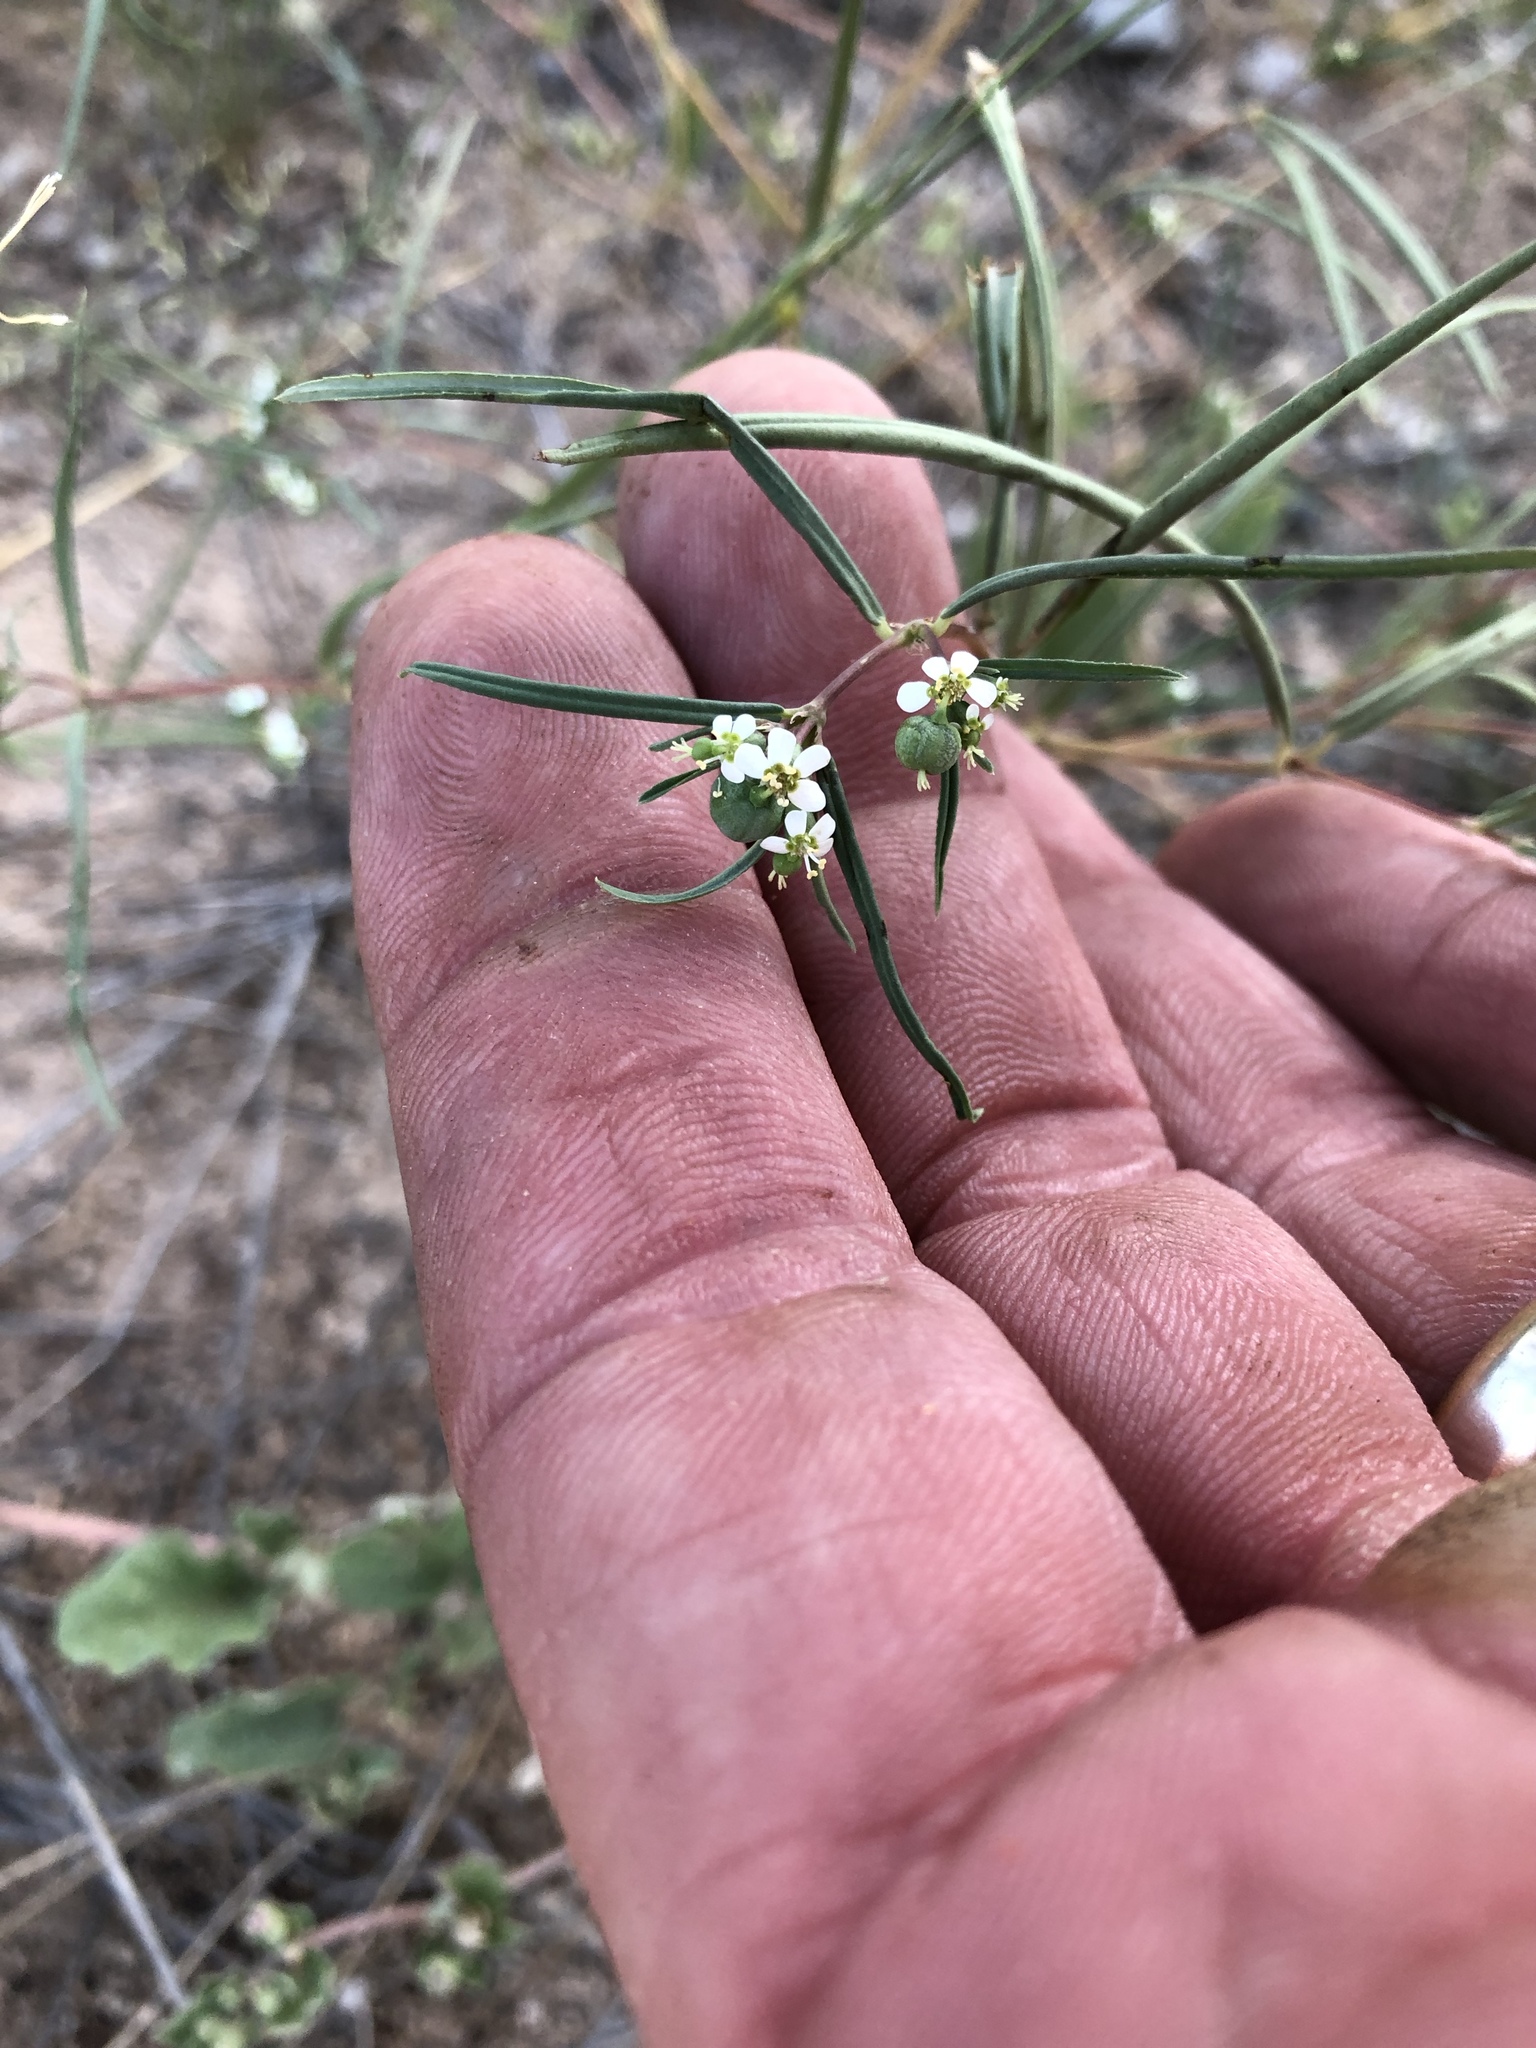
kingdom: Plantae
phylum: Tracheophyta
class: Magnoliopsida
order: Malpighiales
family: Euphorbiaceae
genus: Euphorbia
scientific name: Euphorbia florida
